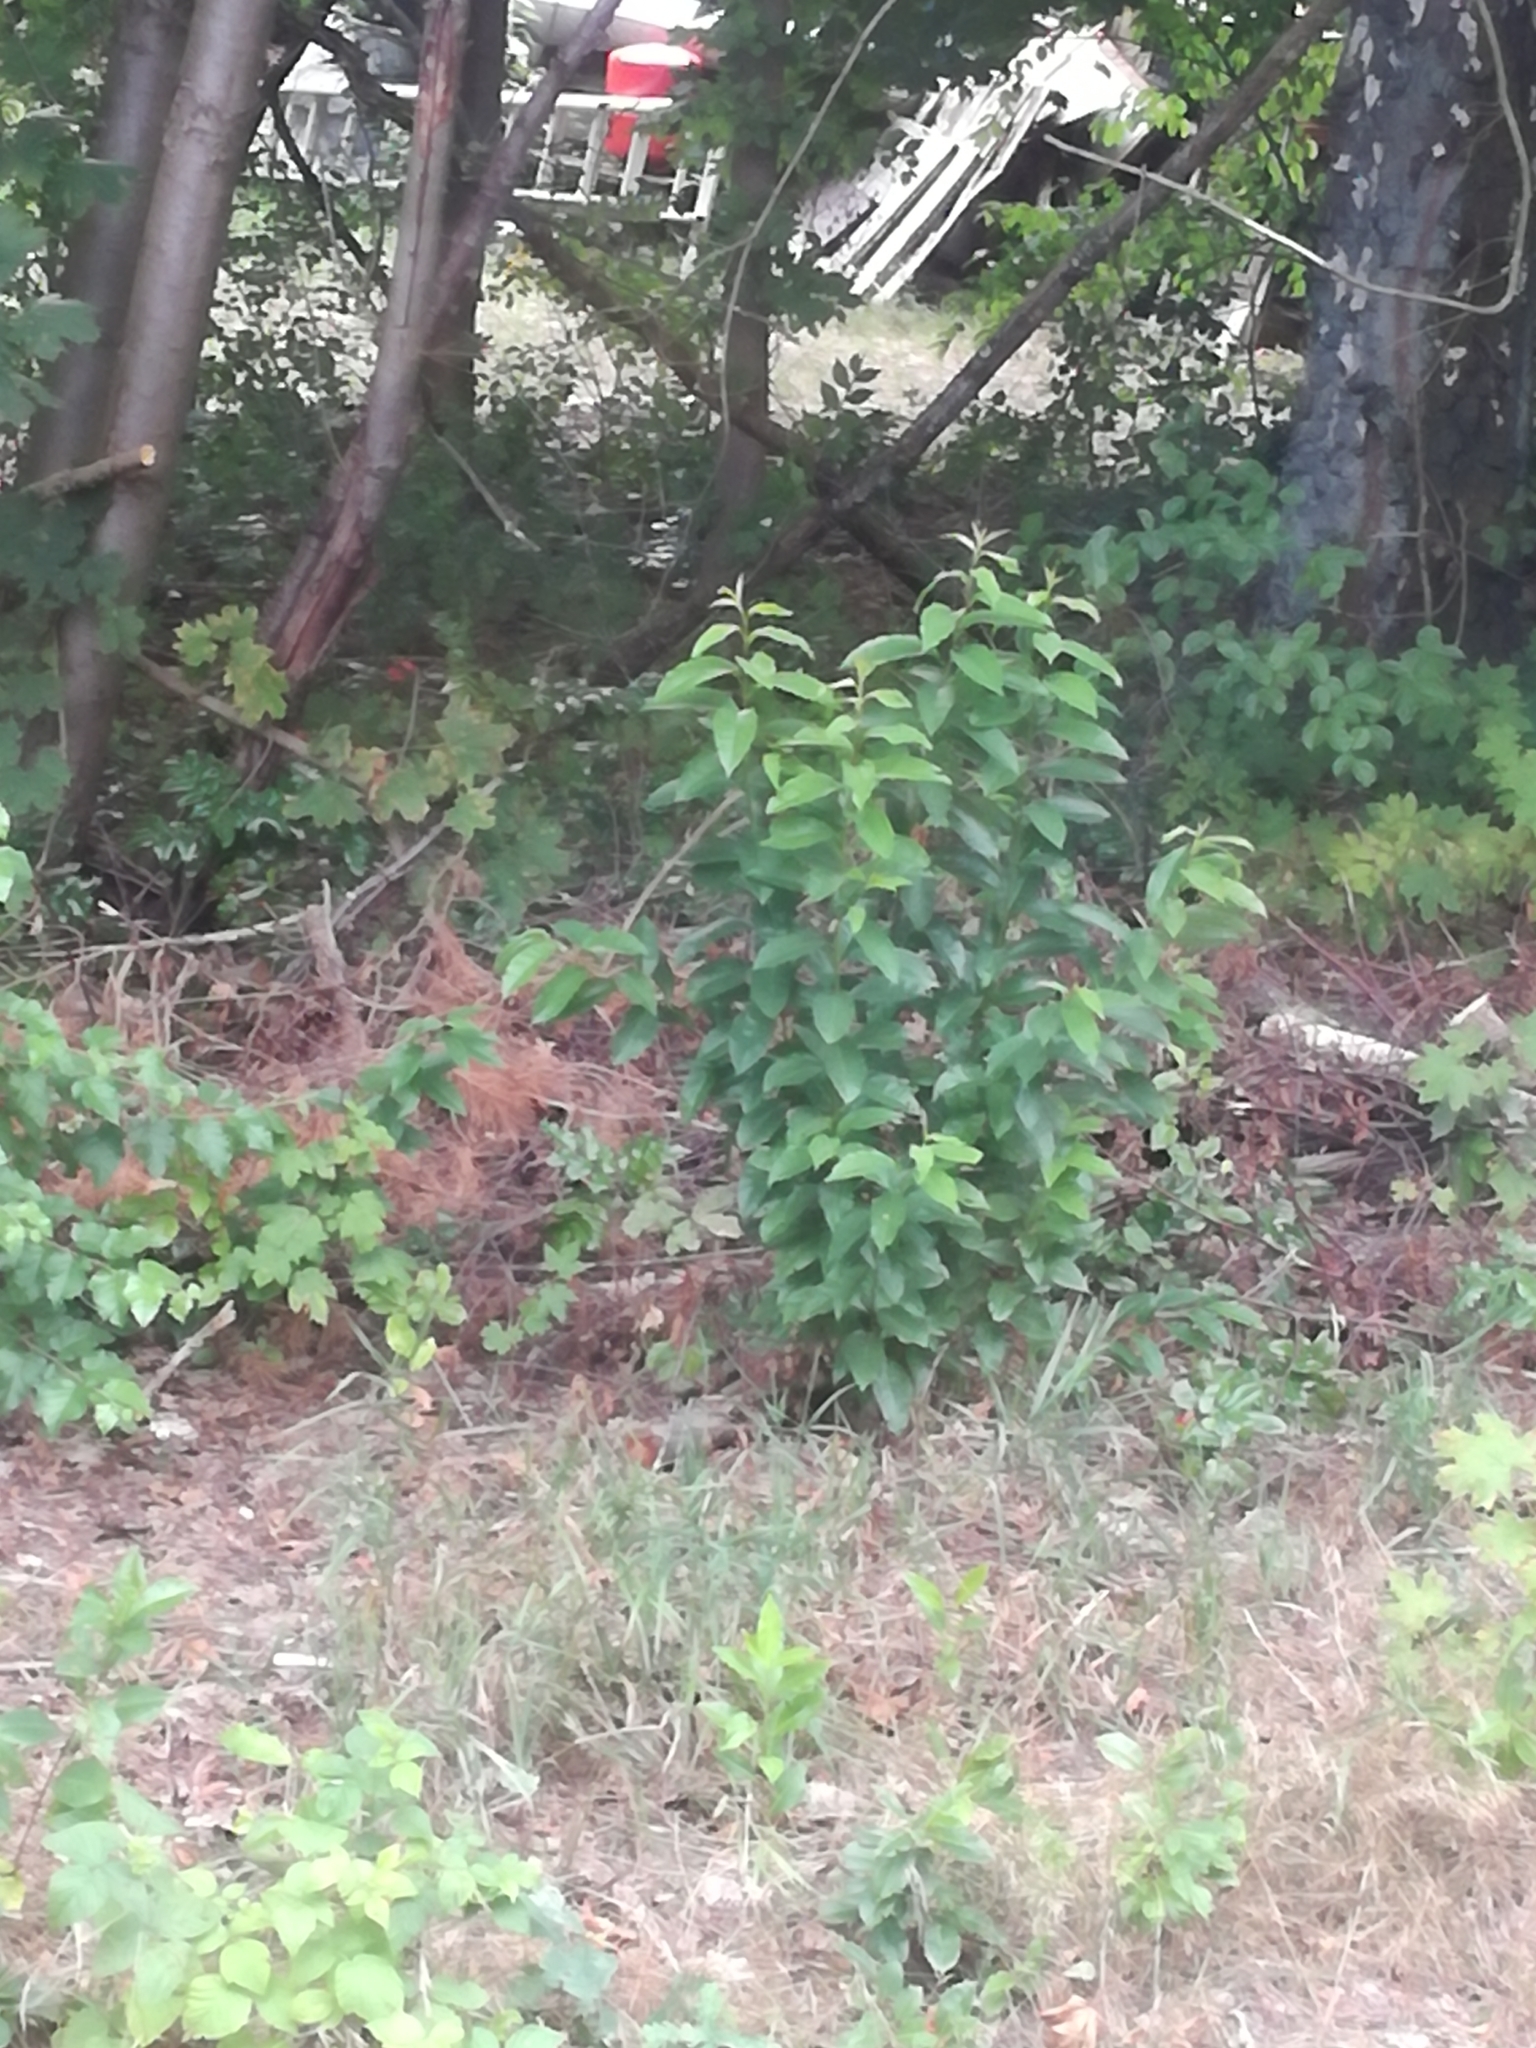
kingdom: Plantae
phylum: Tracheophyta
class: Magnoliopsida
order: Rosales
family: Rosaceae
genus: Prunus
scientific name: Prunus serotina
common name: Black cherry
